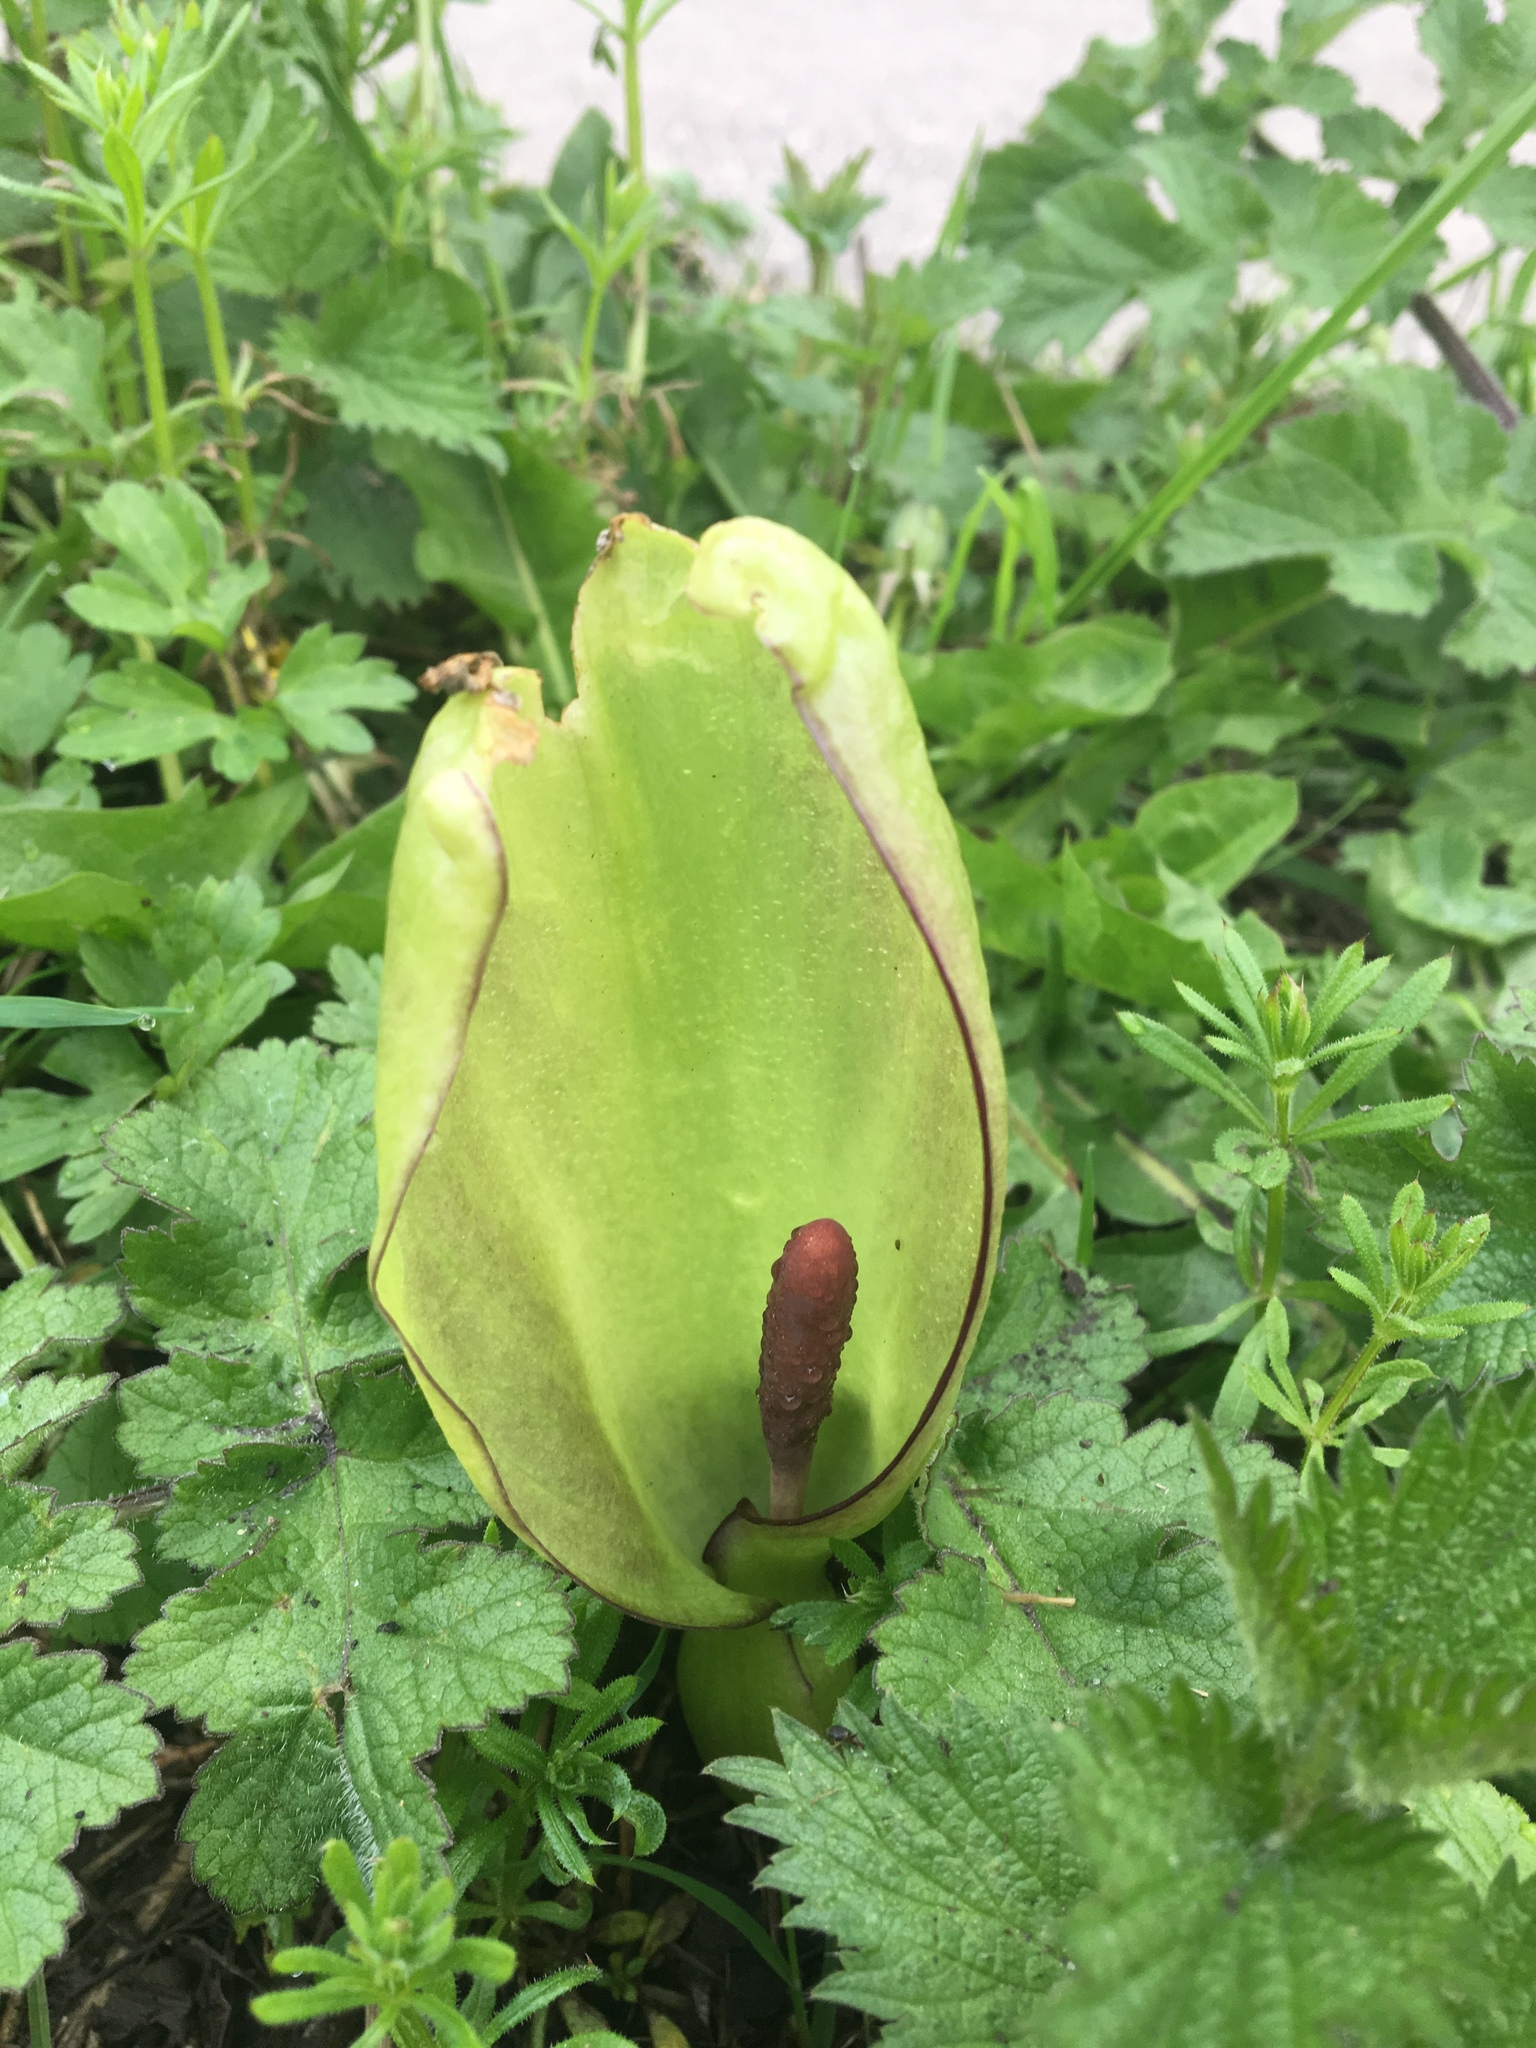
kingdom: Plantae
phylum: Tracheophyta
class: Liliopsida
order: Alismatales
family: Araceae
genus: Arum
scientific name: Arum maculatum
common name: Lords-and-ladies
